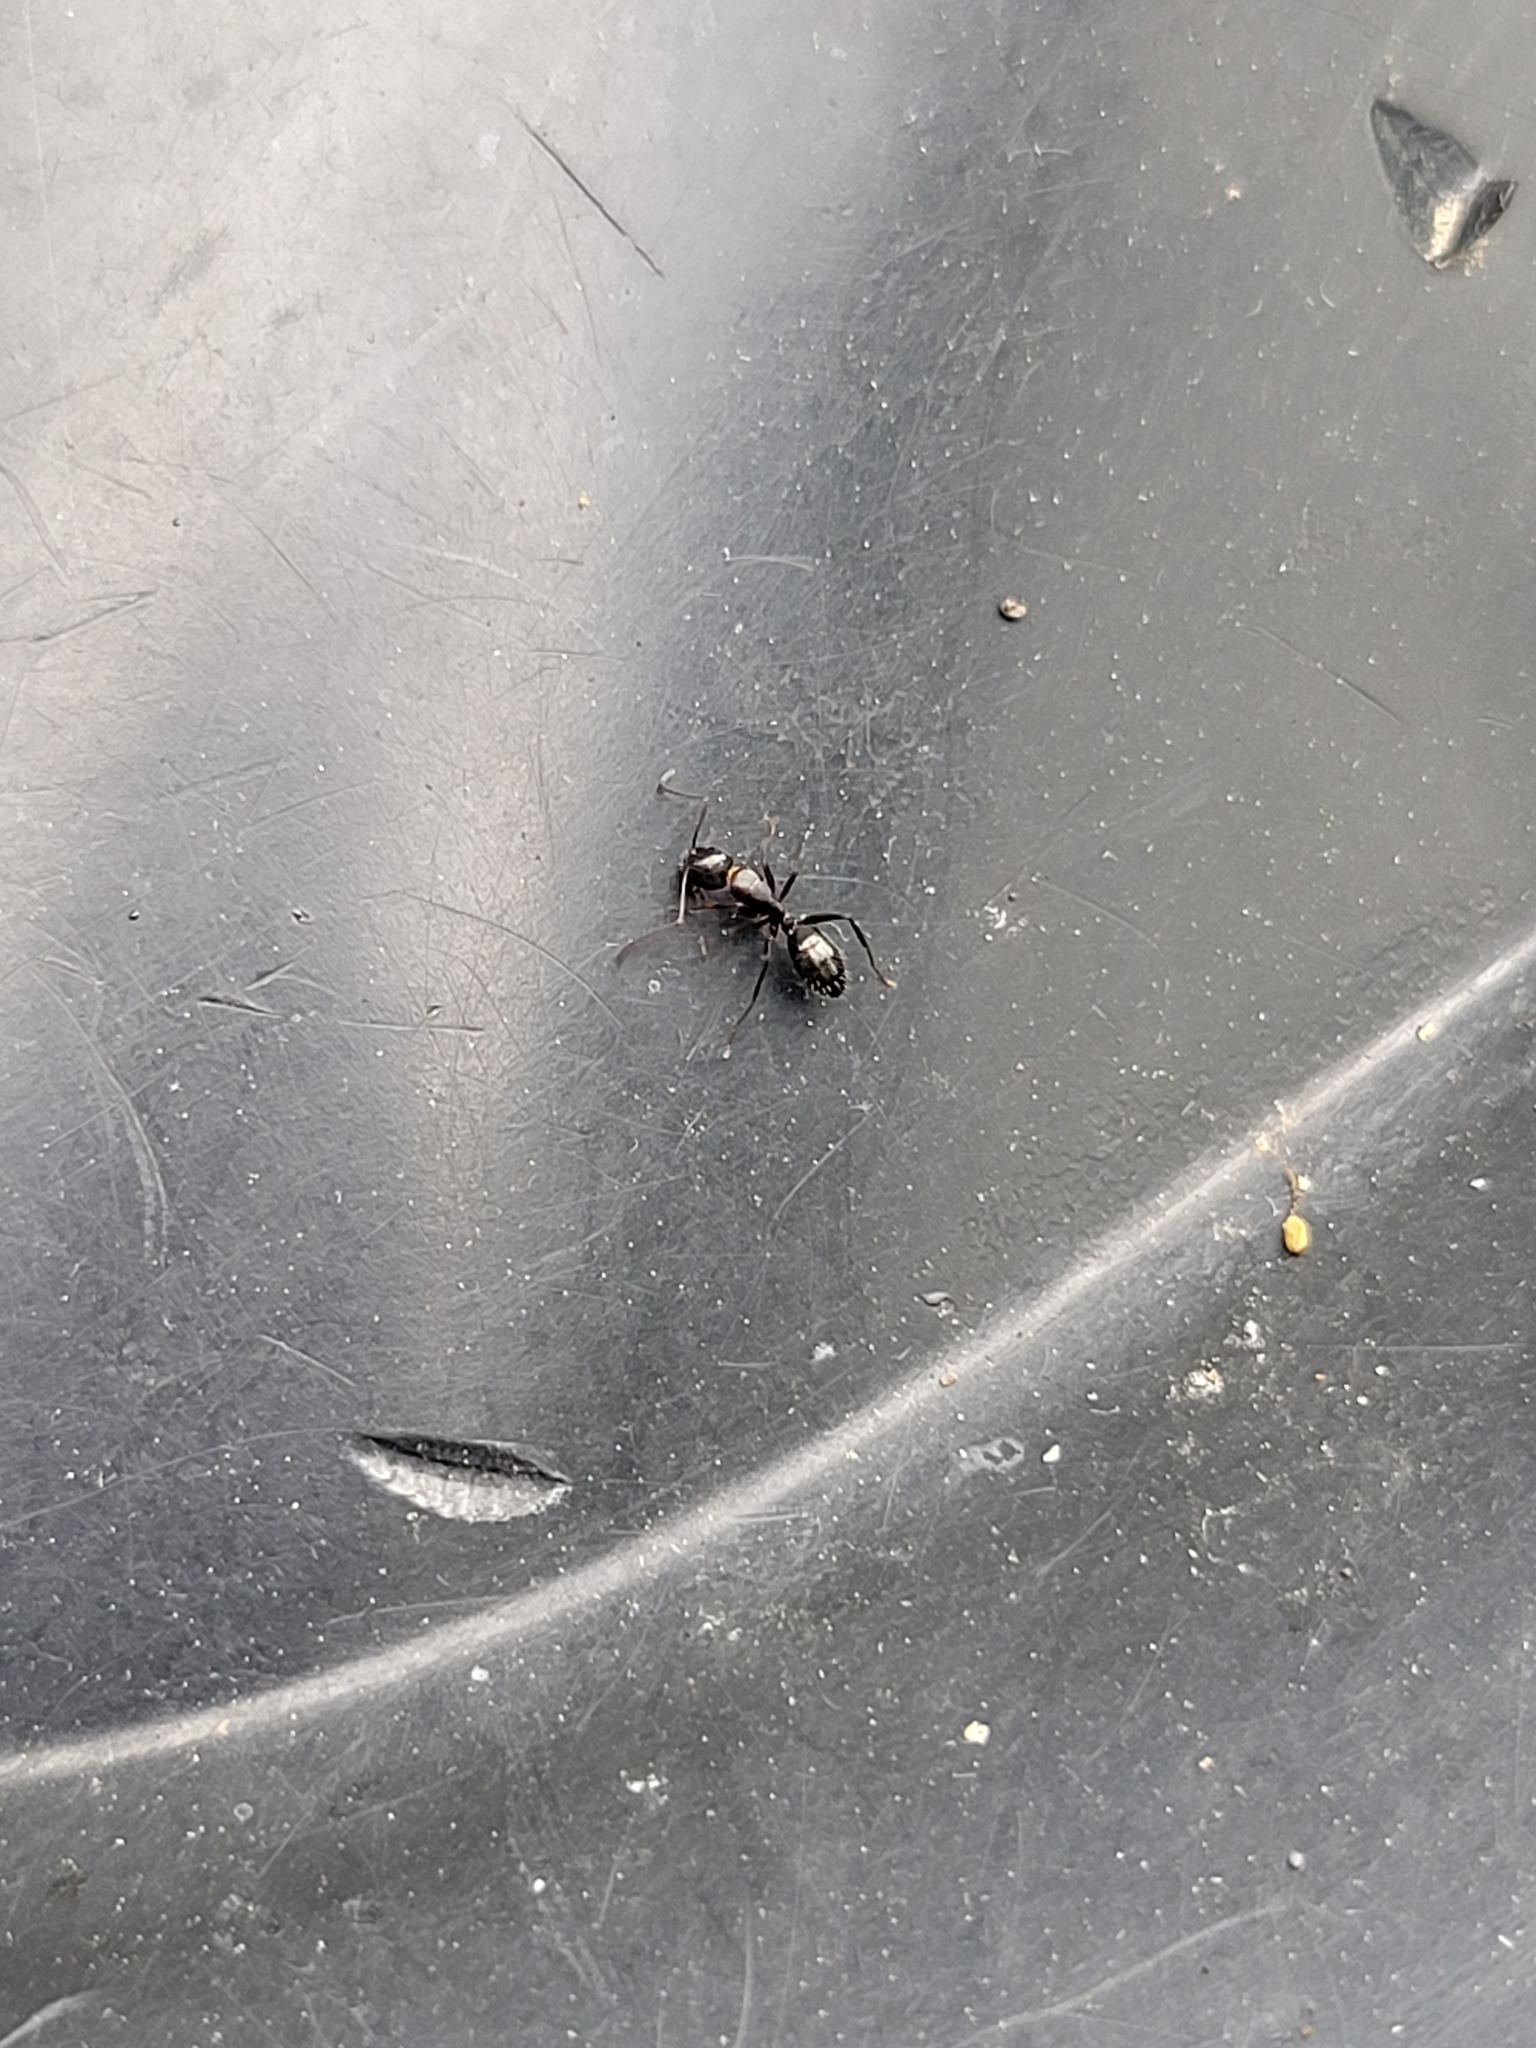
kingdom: Animalia
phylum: Arthropoda
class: Insecta
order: Hymenoptera
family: Formicidae
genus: Camponotus
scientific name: Camponotus nearcticus
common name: Smaller carpenter ant
